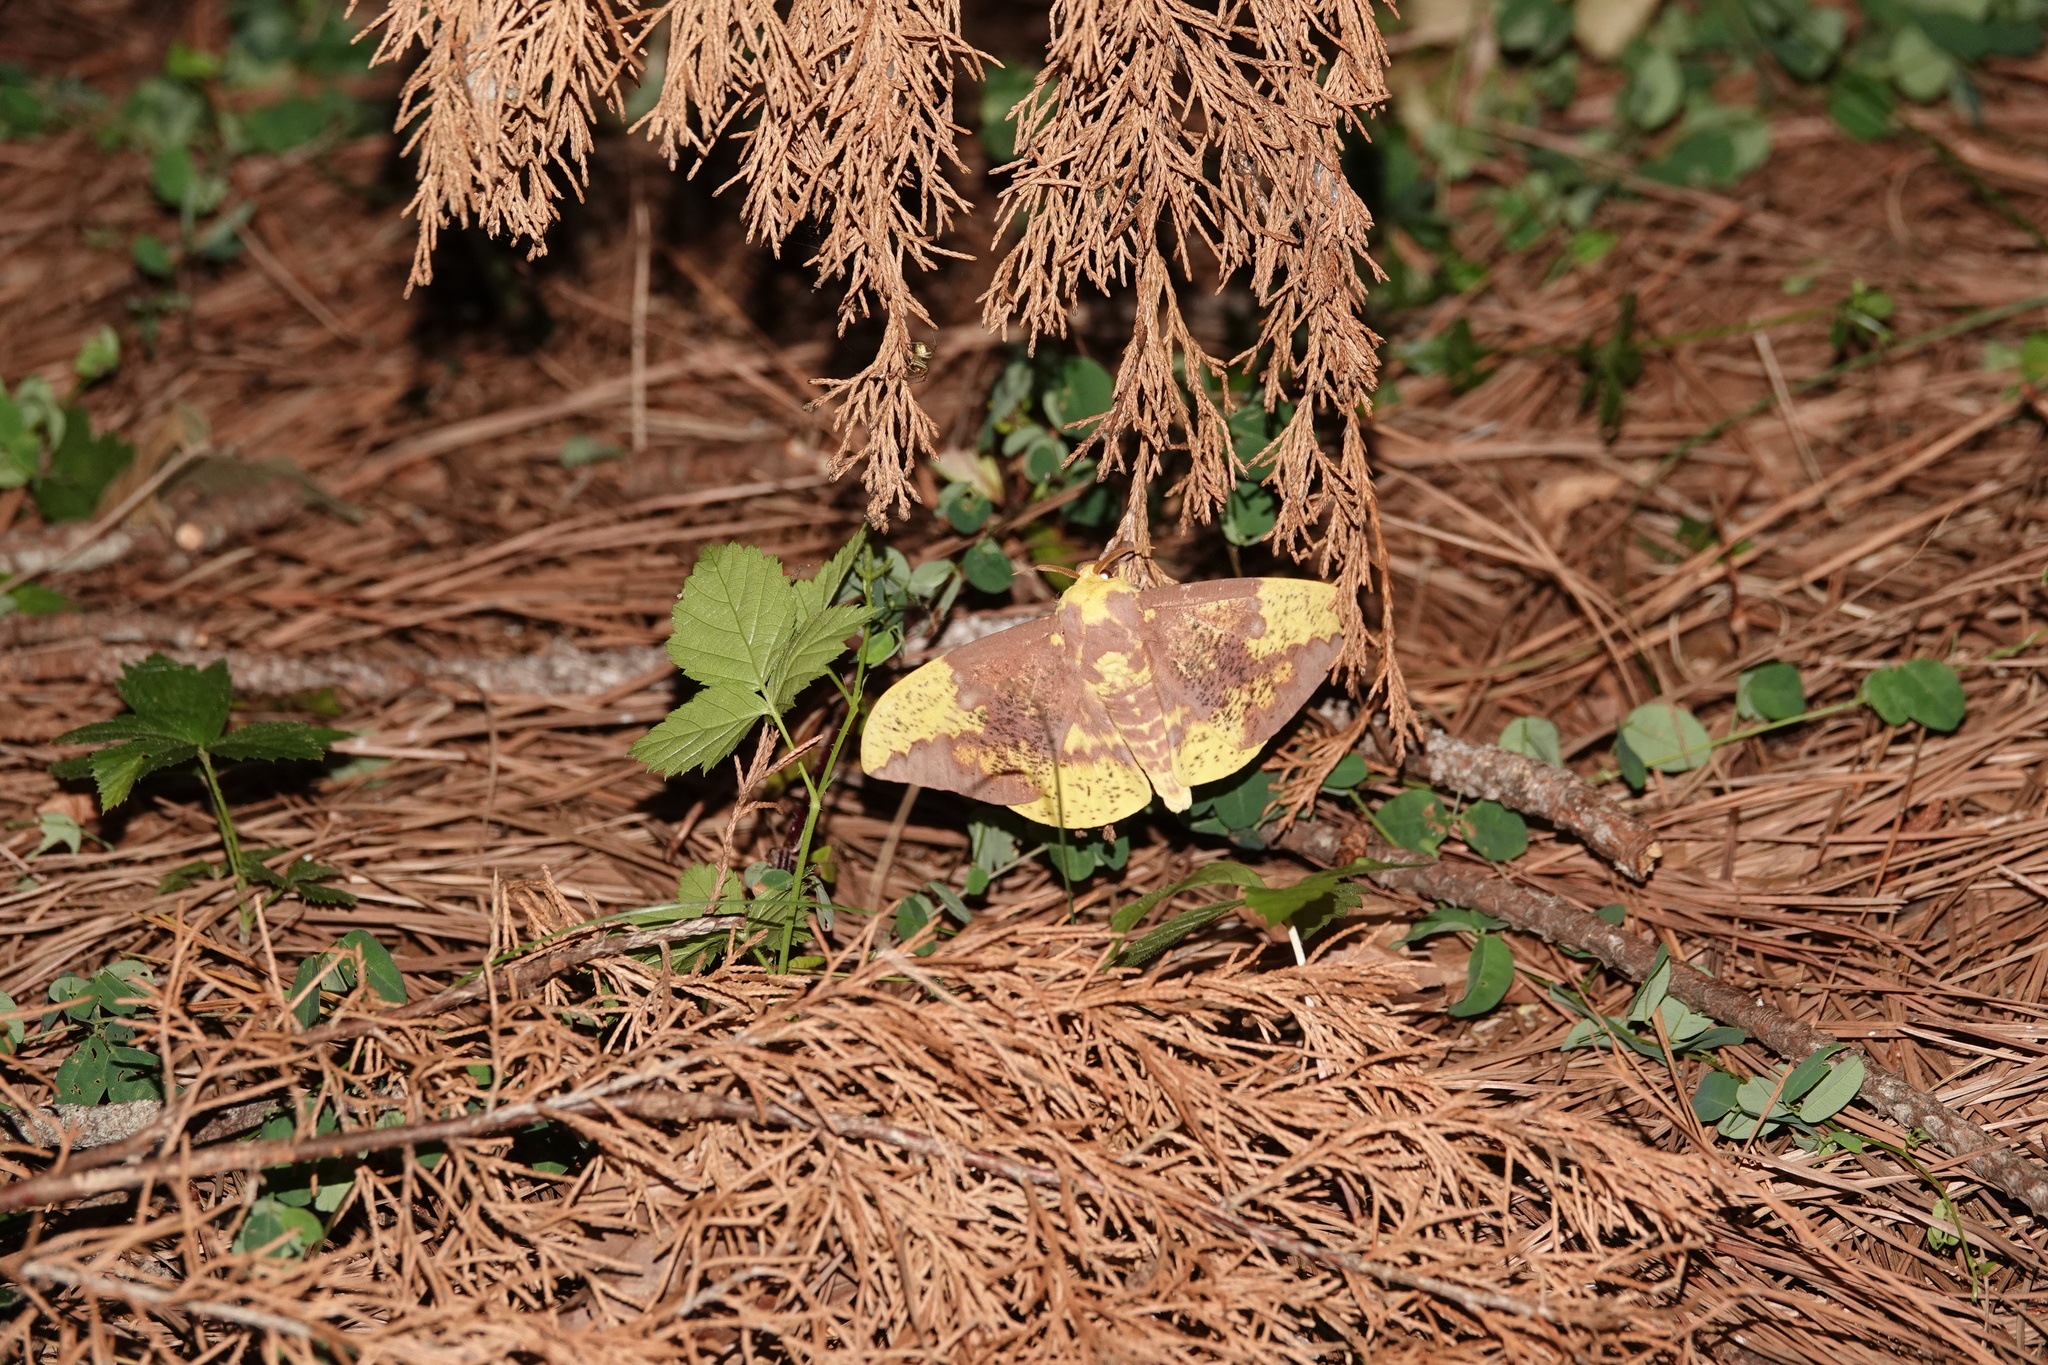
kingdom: Animalia
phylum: Arthropoda
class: Insecta
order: Lepidoptera
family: Saturniidae
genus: Eacles
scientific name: Eacles imperialis
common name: Imperial moth
